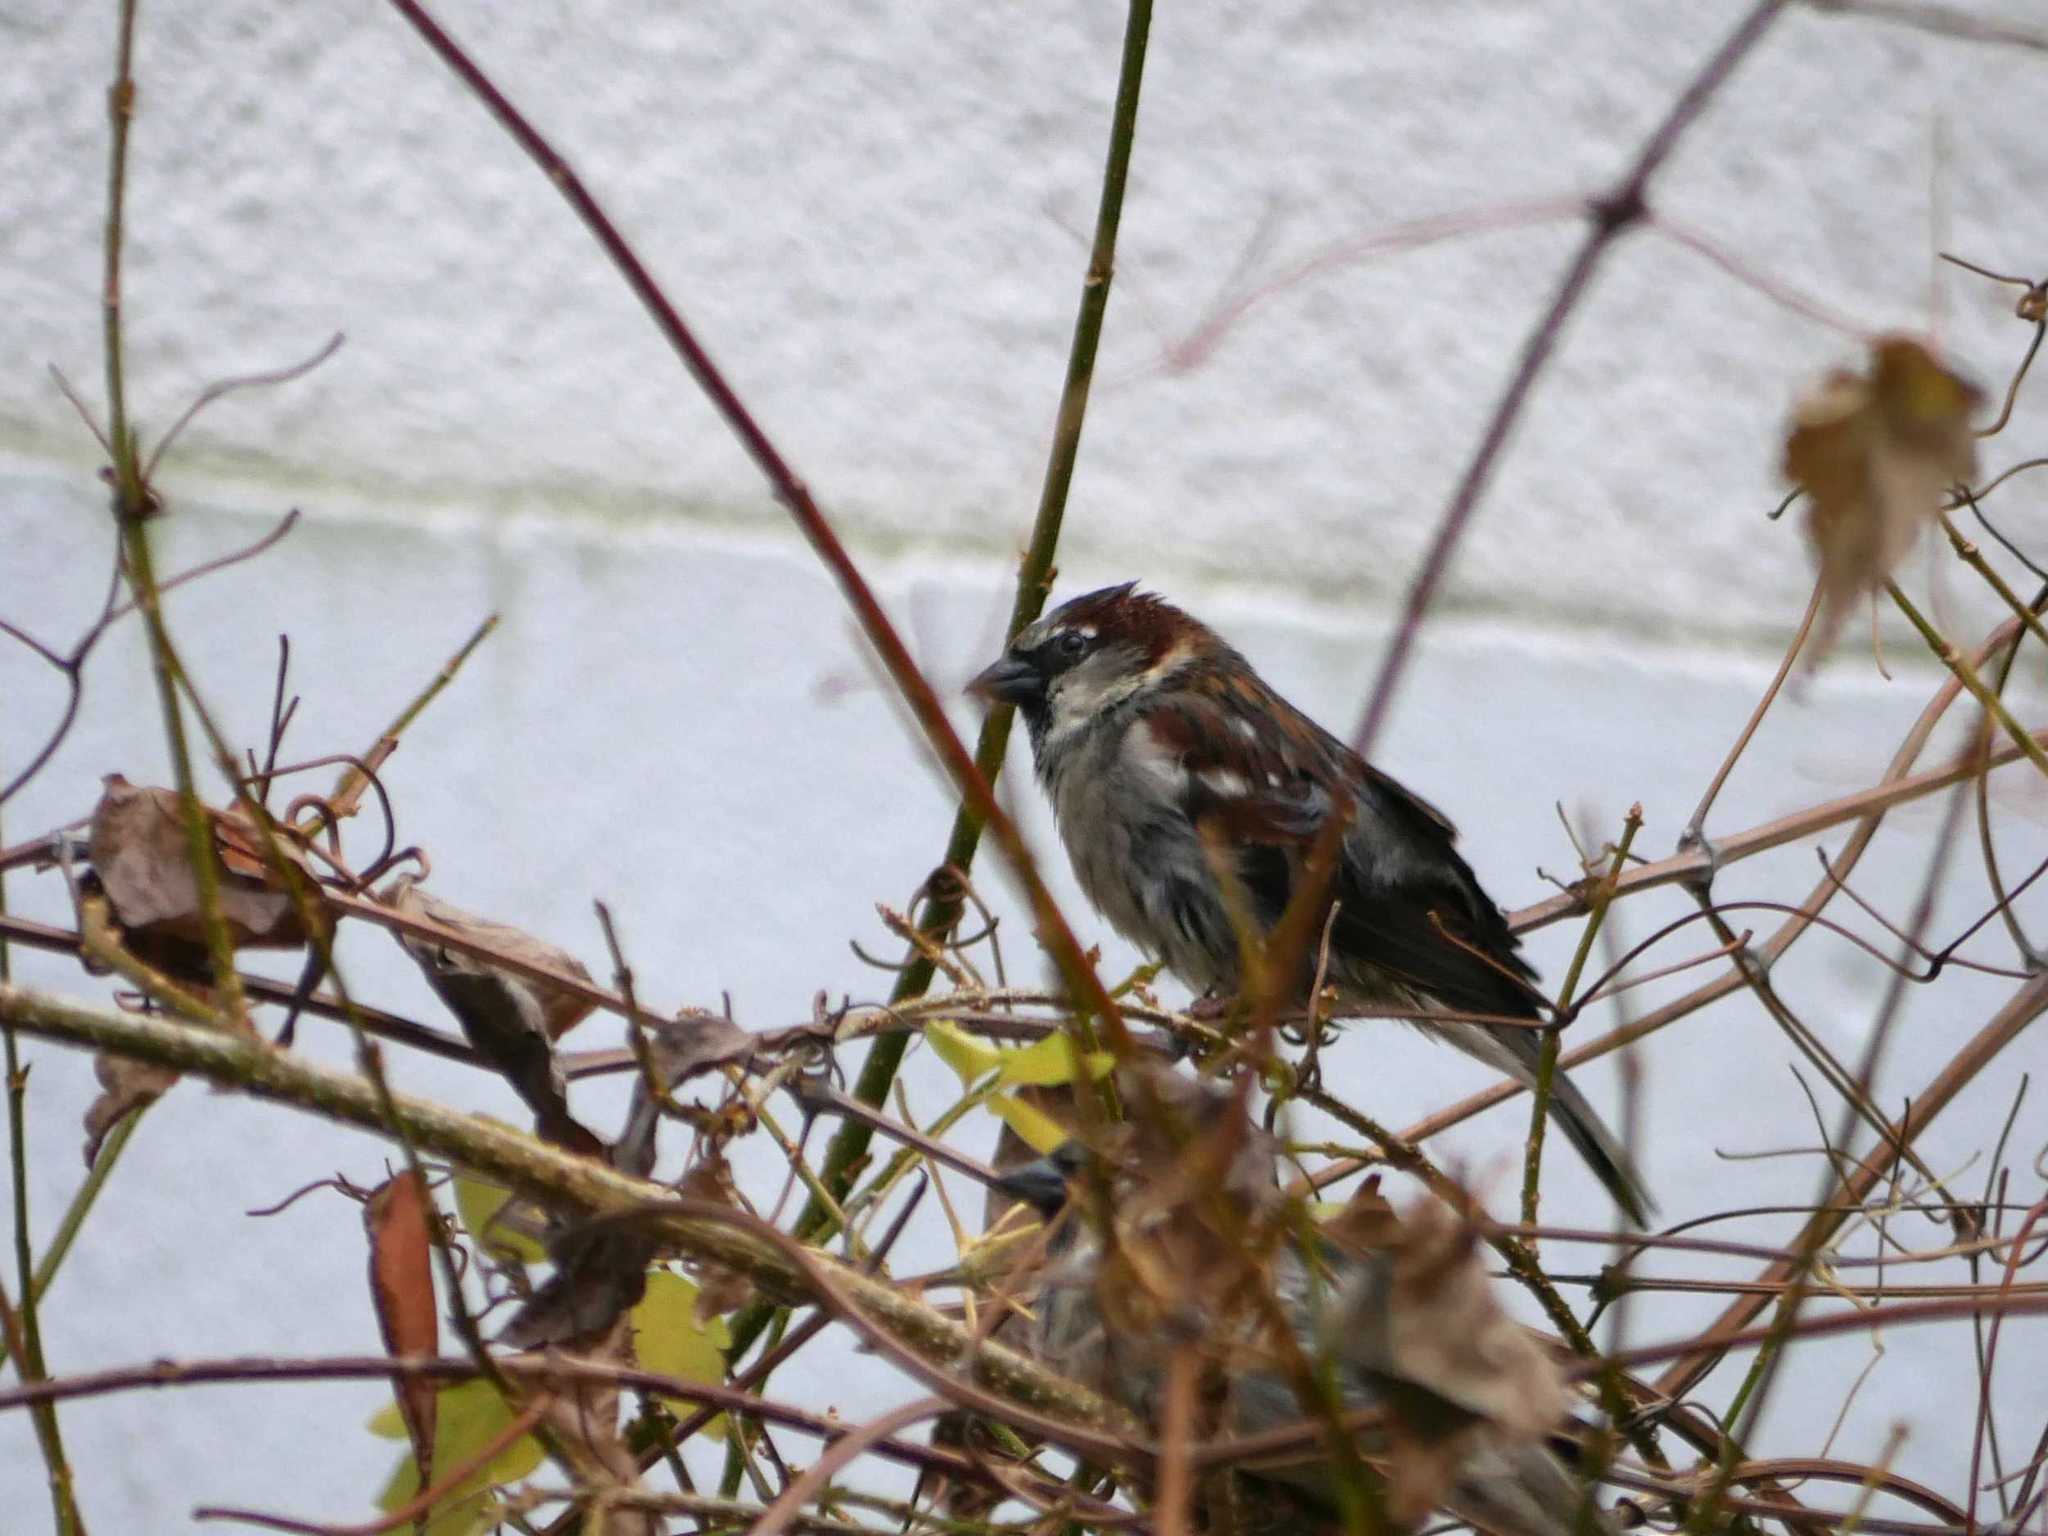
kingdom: Animalia
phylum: Chordata
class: Aves
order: Passeriformes
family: Passeridae
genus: Passer
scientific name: Passer domesticus
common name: House sparrow
